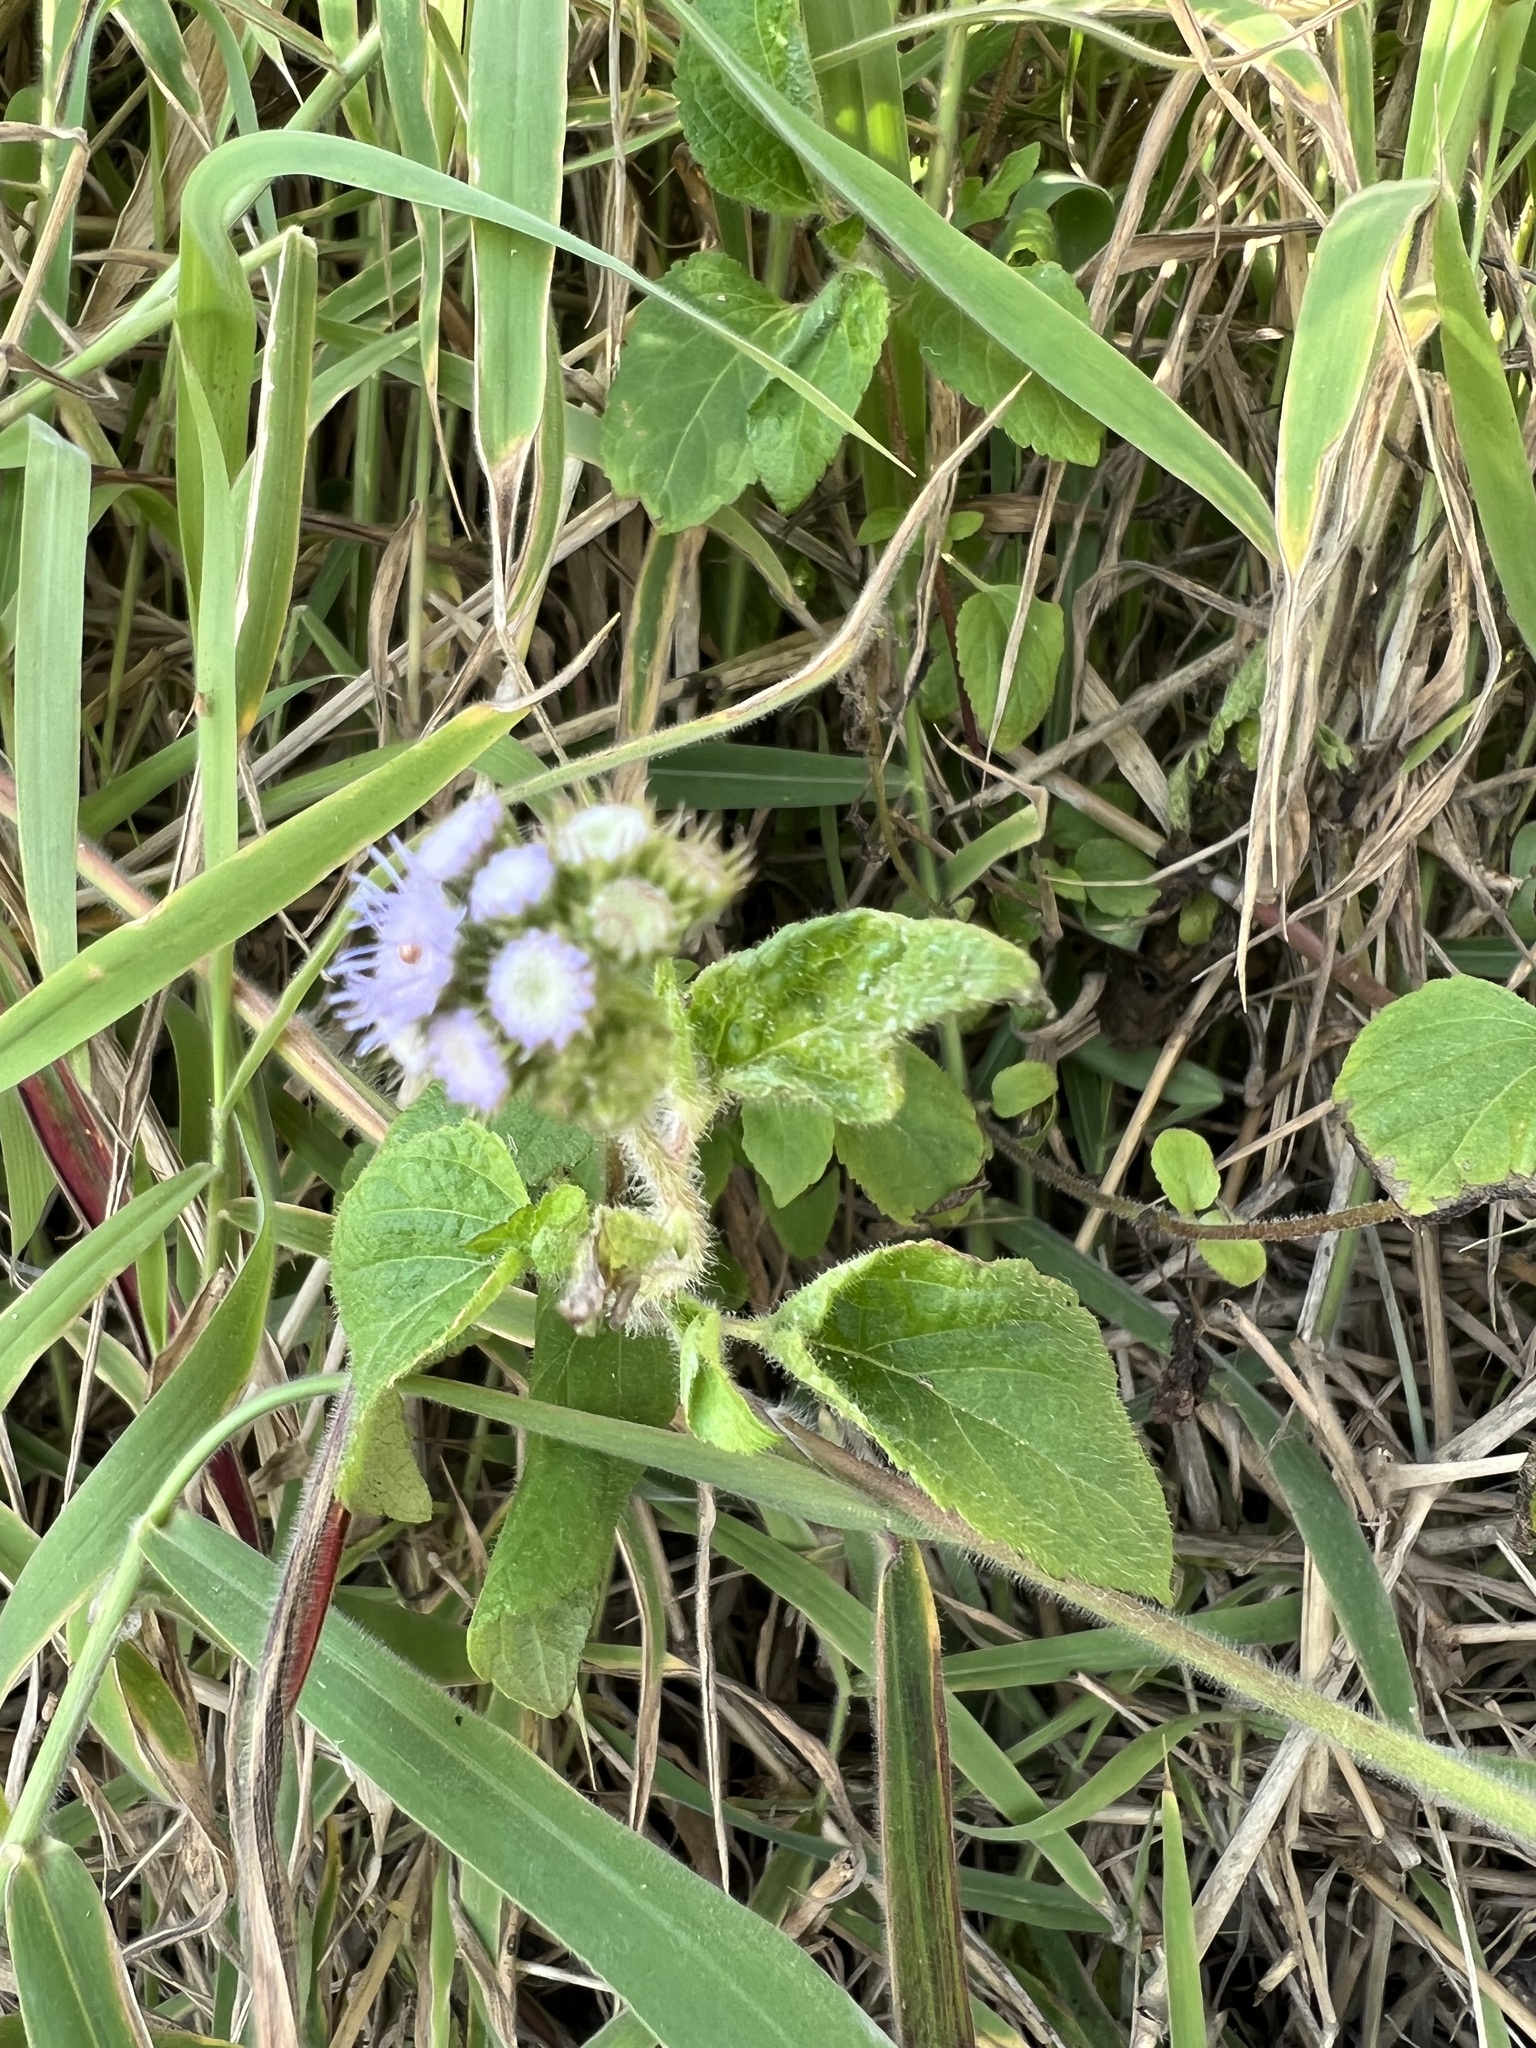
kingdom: Plantae
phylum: Tracheophyta
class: Magnoliopsida
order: Asterales
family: Asteraceae
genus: Ageratum
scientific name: Ageratum houstonianum
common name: Bluemink
